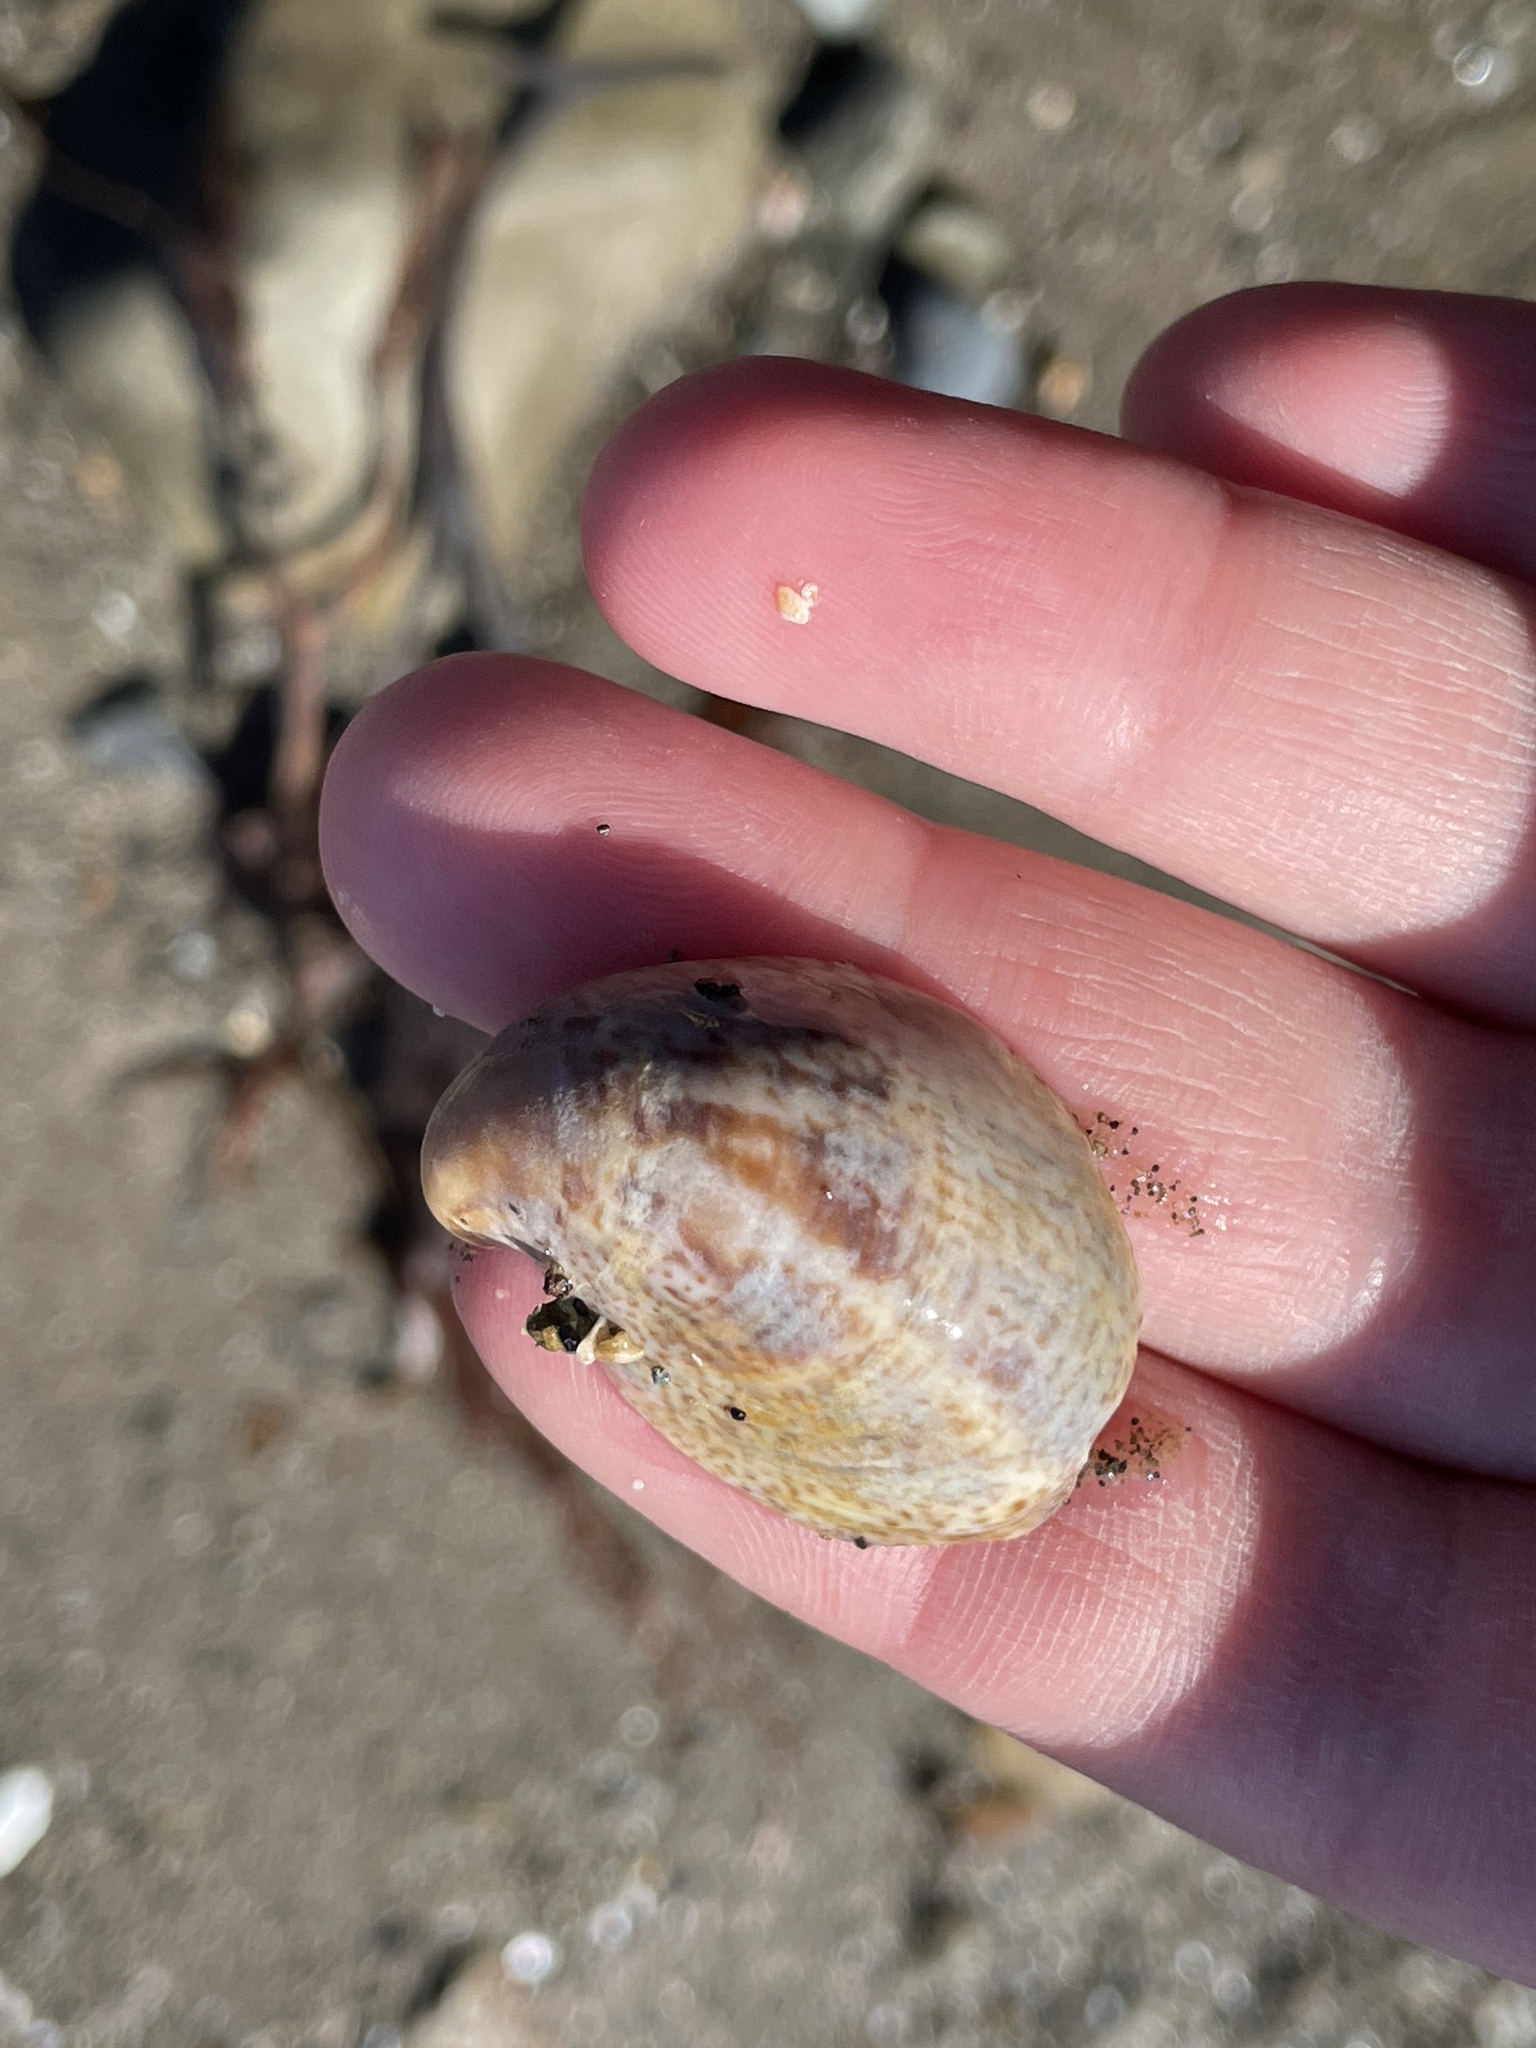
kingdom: Animalia
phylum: Mollusca
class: Gastropoda
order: Littorinimorpha
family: Calyptraeidae
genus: Crepidula
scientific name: Crepidula fornicata
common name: Slipper limpet
